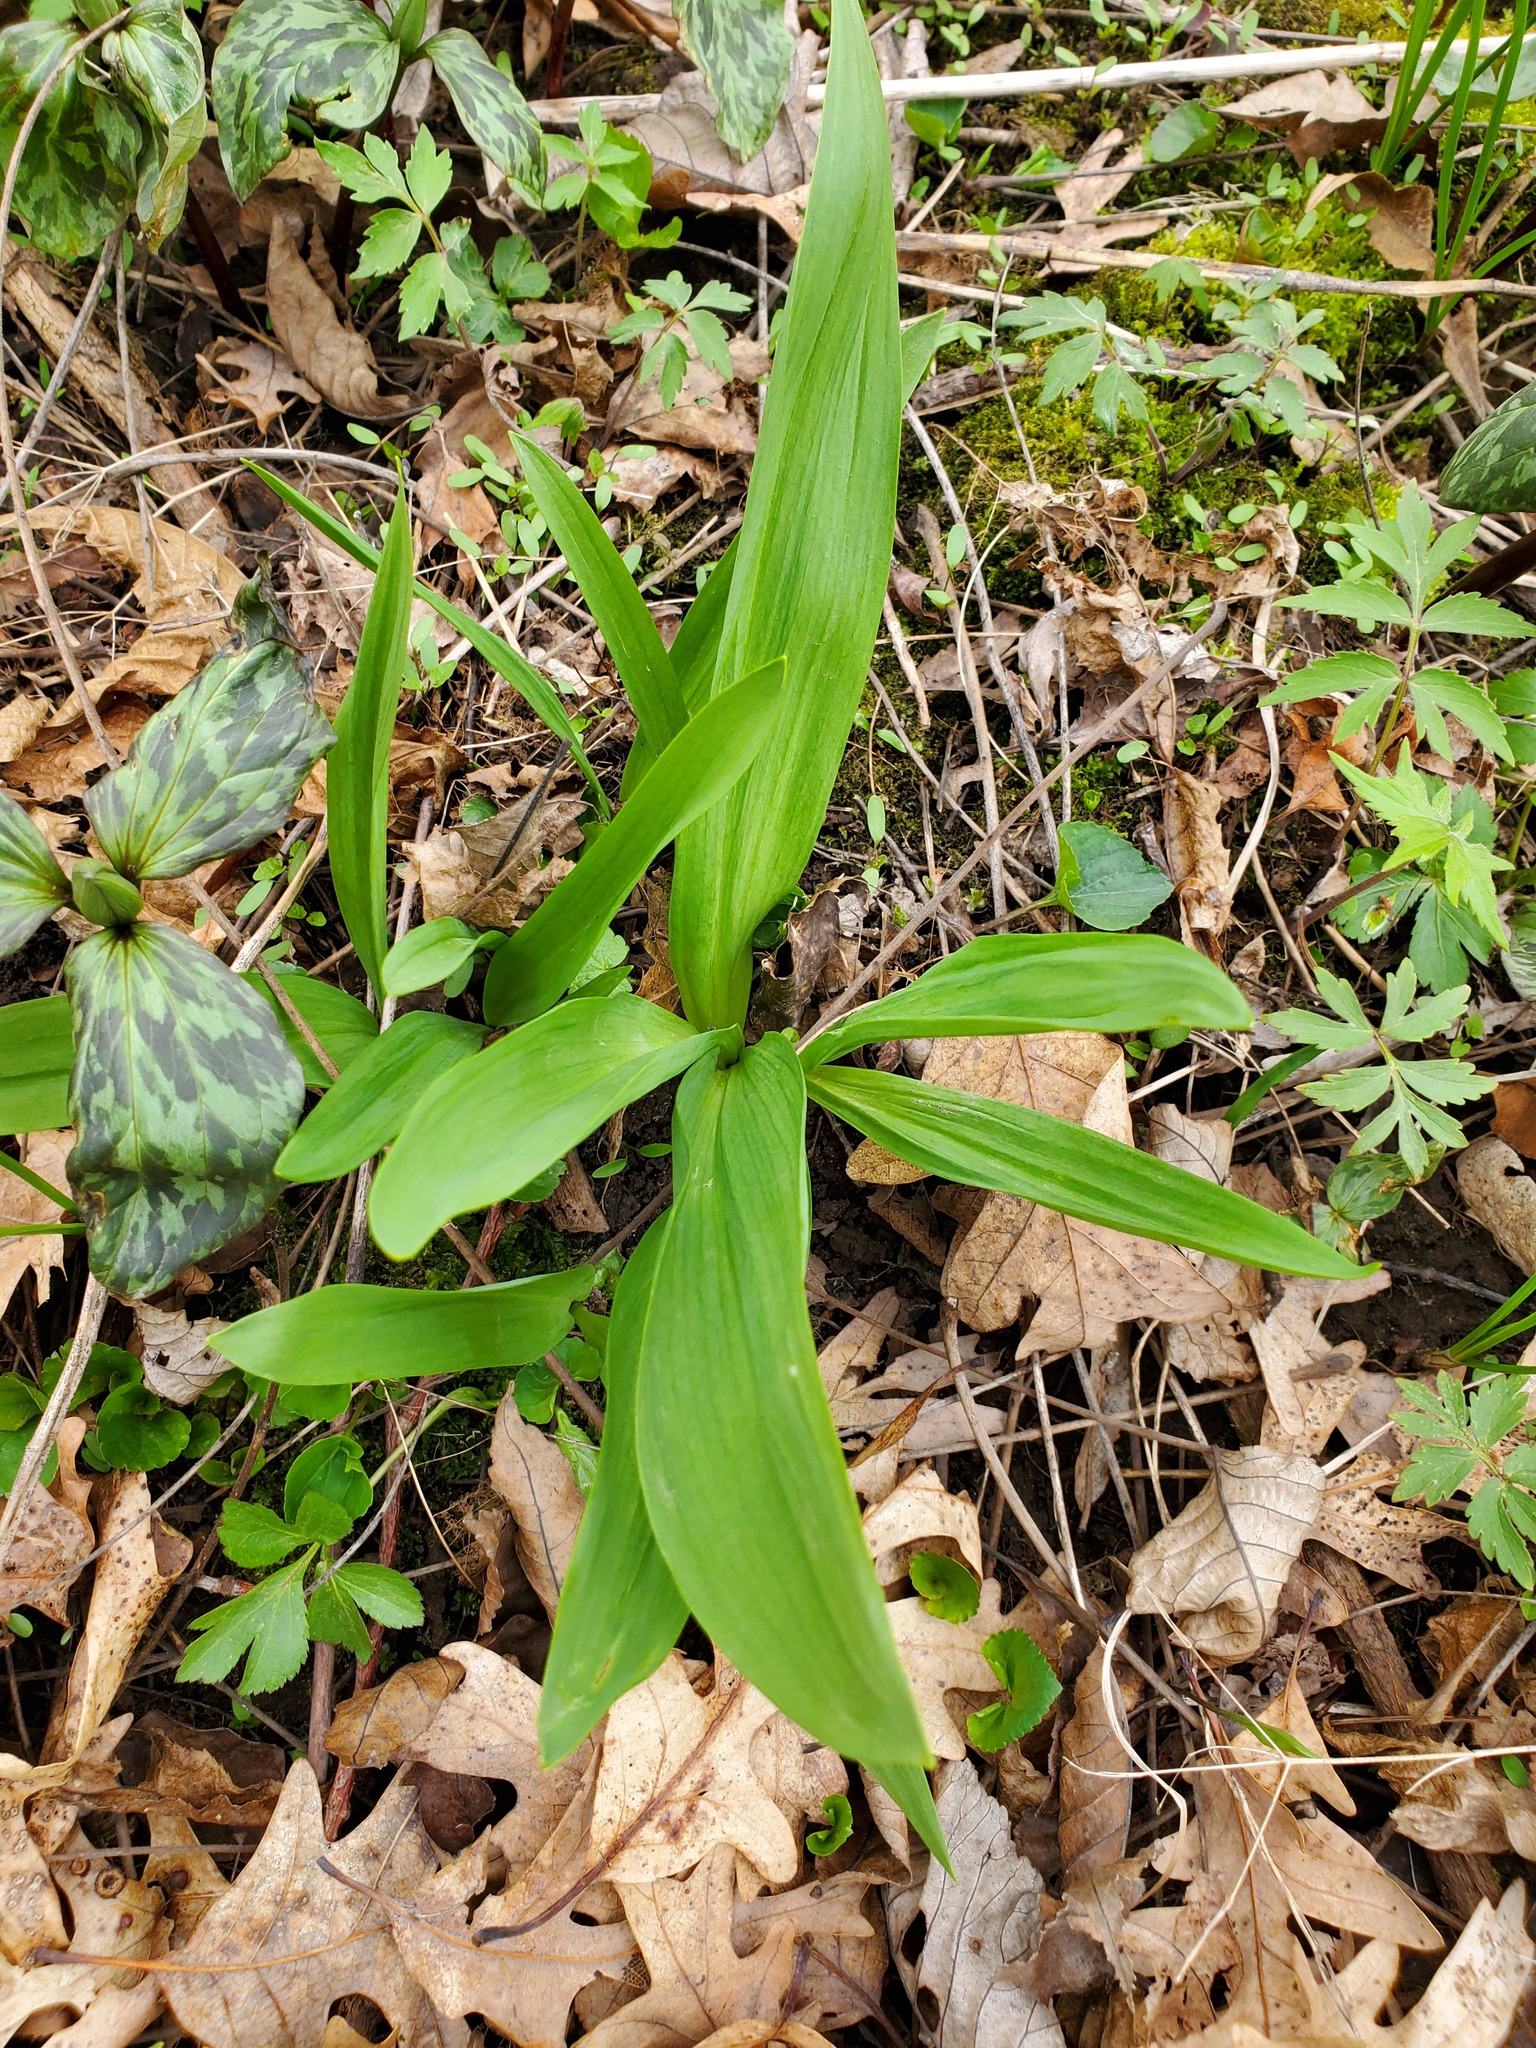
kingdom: Plantae
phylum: Tracheophyta
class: Liliopsida
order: Asparagales
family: Amaryllidaceae
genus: Allium
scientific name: Allium tricoccum
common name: Ramp
